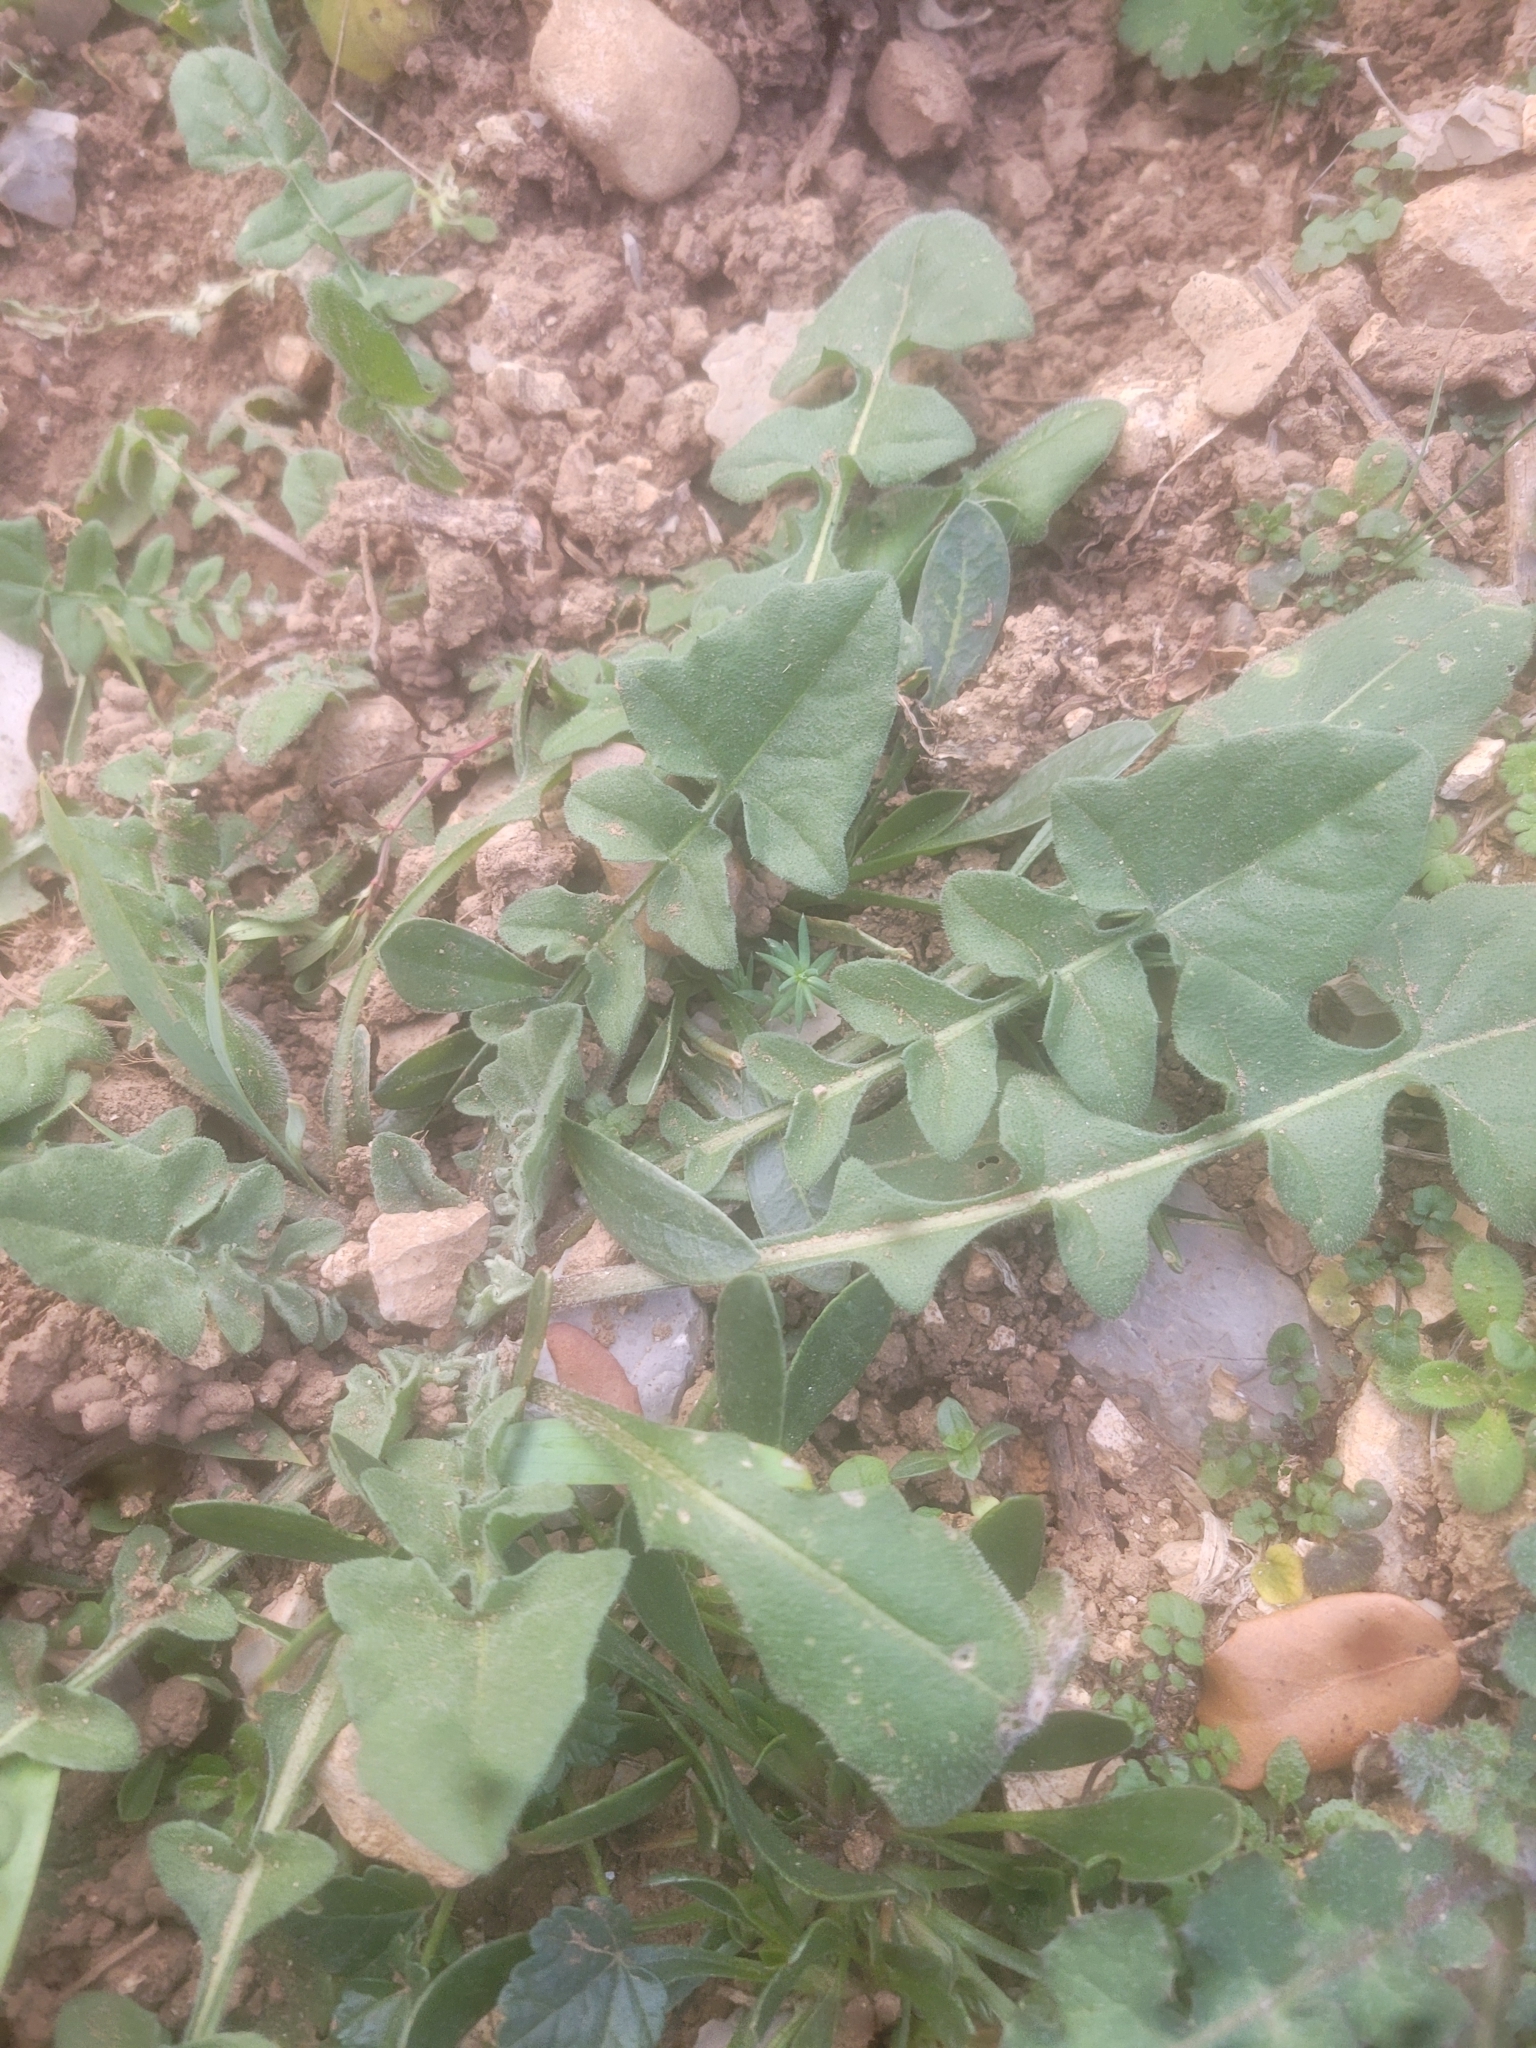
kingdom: Plantae
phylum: Tracheophyta
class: Magnoliopsida
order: Asterales
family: Asteraceae
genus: Urospermum
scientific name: Urospermum dalechampii
